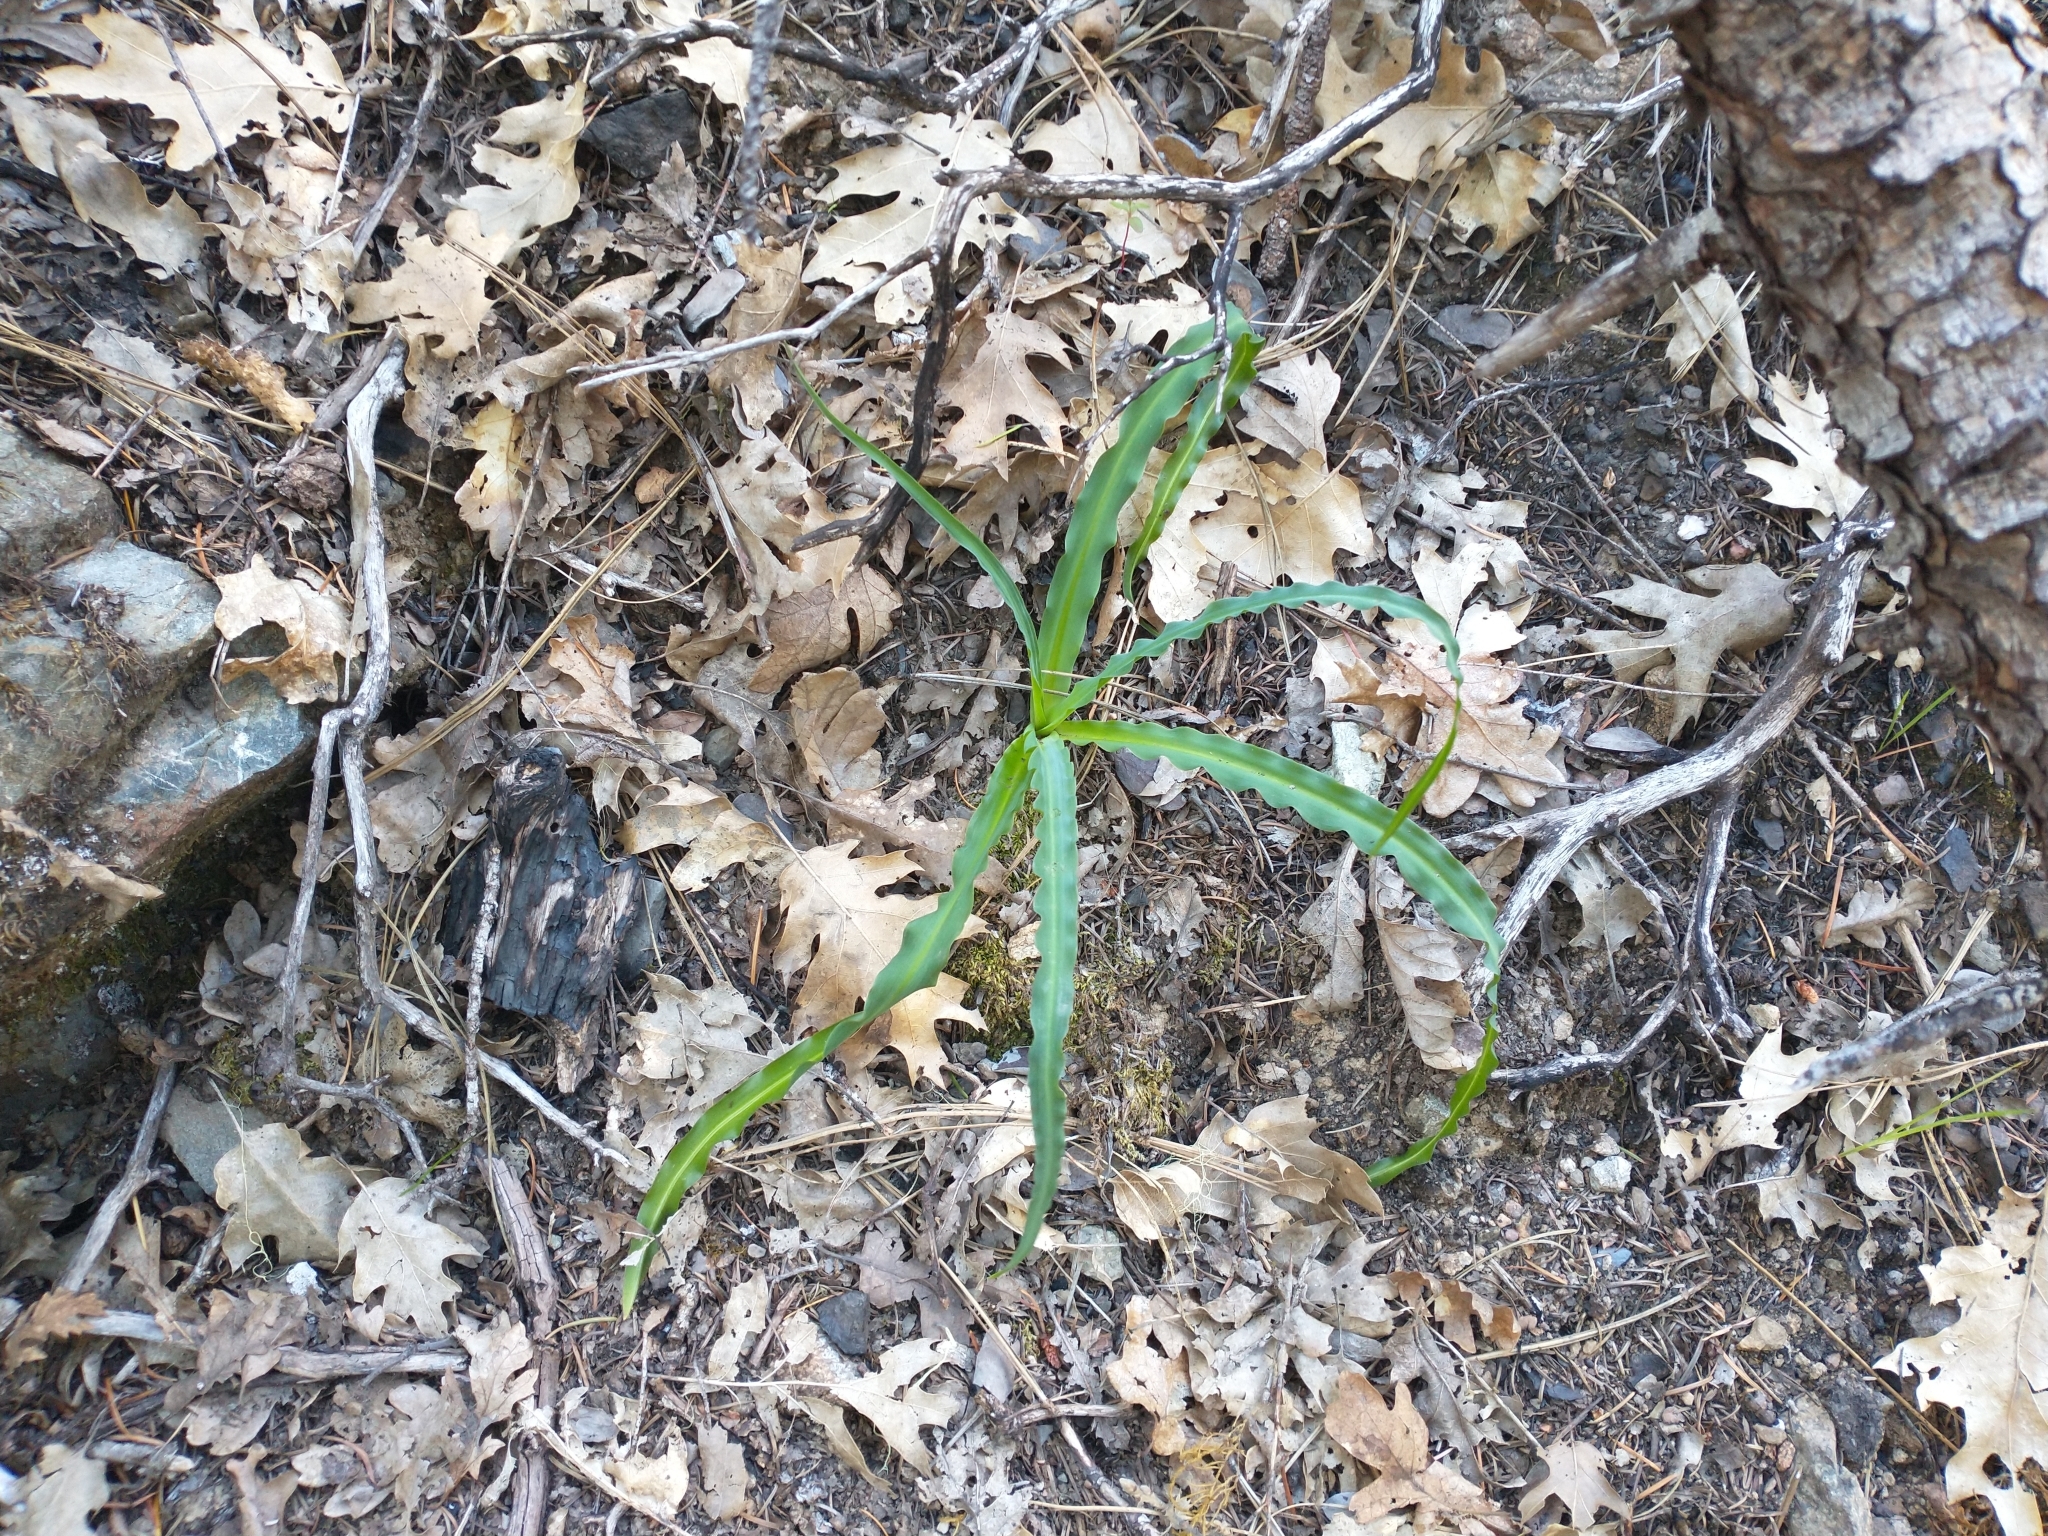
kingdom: Plantae
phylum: Tracheophyta
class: Liliopsida
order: Asparagales
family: Asparagaceae
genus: Chlorogalum
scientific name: Chlorogalum pomeridianum
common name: Amole
